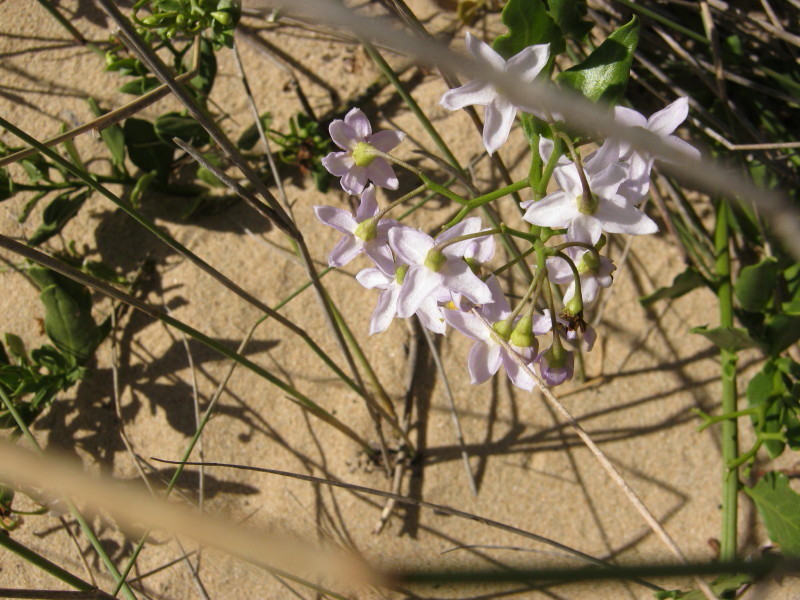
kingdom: Plantae
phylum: Tracheophyta
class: Magnoliopsida
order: Solanales
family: Solanaceae
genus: Solanum
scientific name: Solanum africanum
